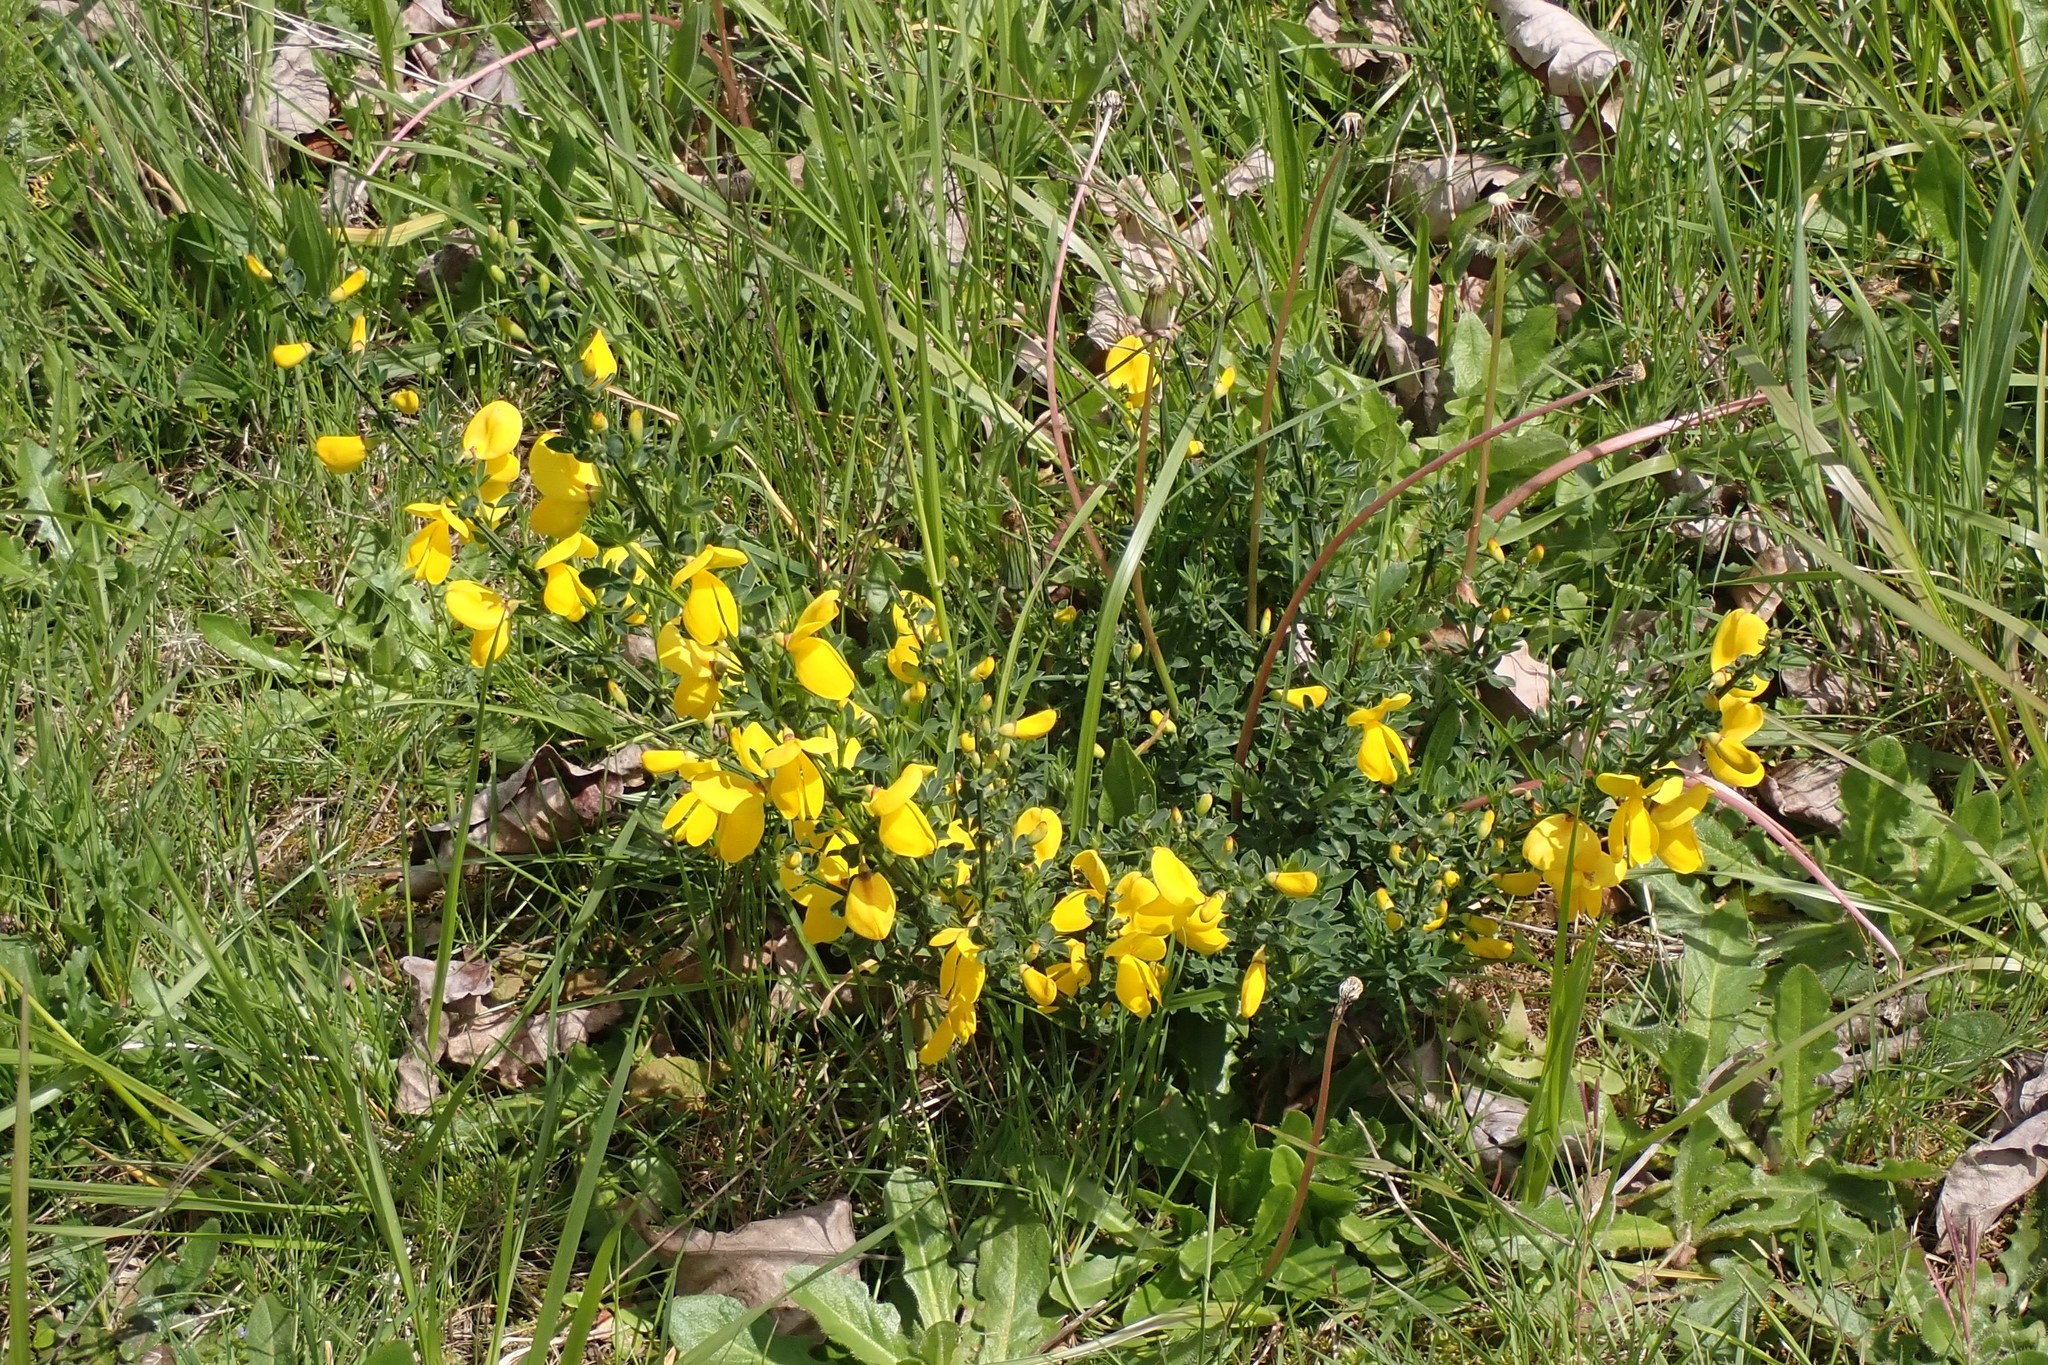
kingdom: Plantae
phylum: Tracheophyta
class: Magnoliopsida
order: Fabales
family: Fabaceae
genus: Cytisus
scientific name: Cytisus scoparius
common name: Scotch broom
